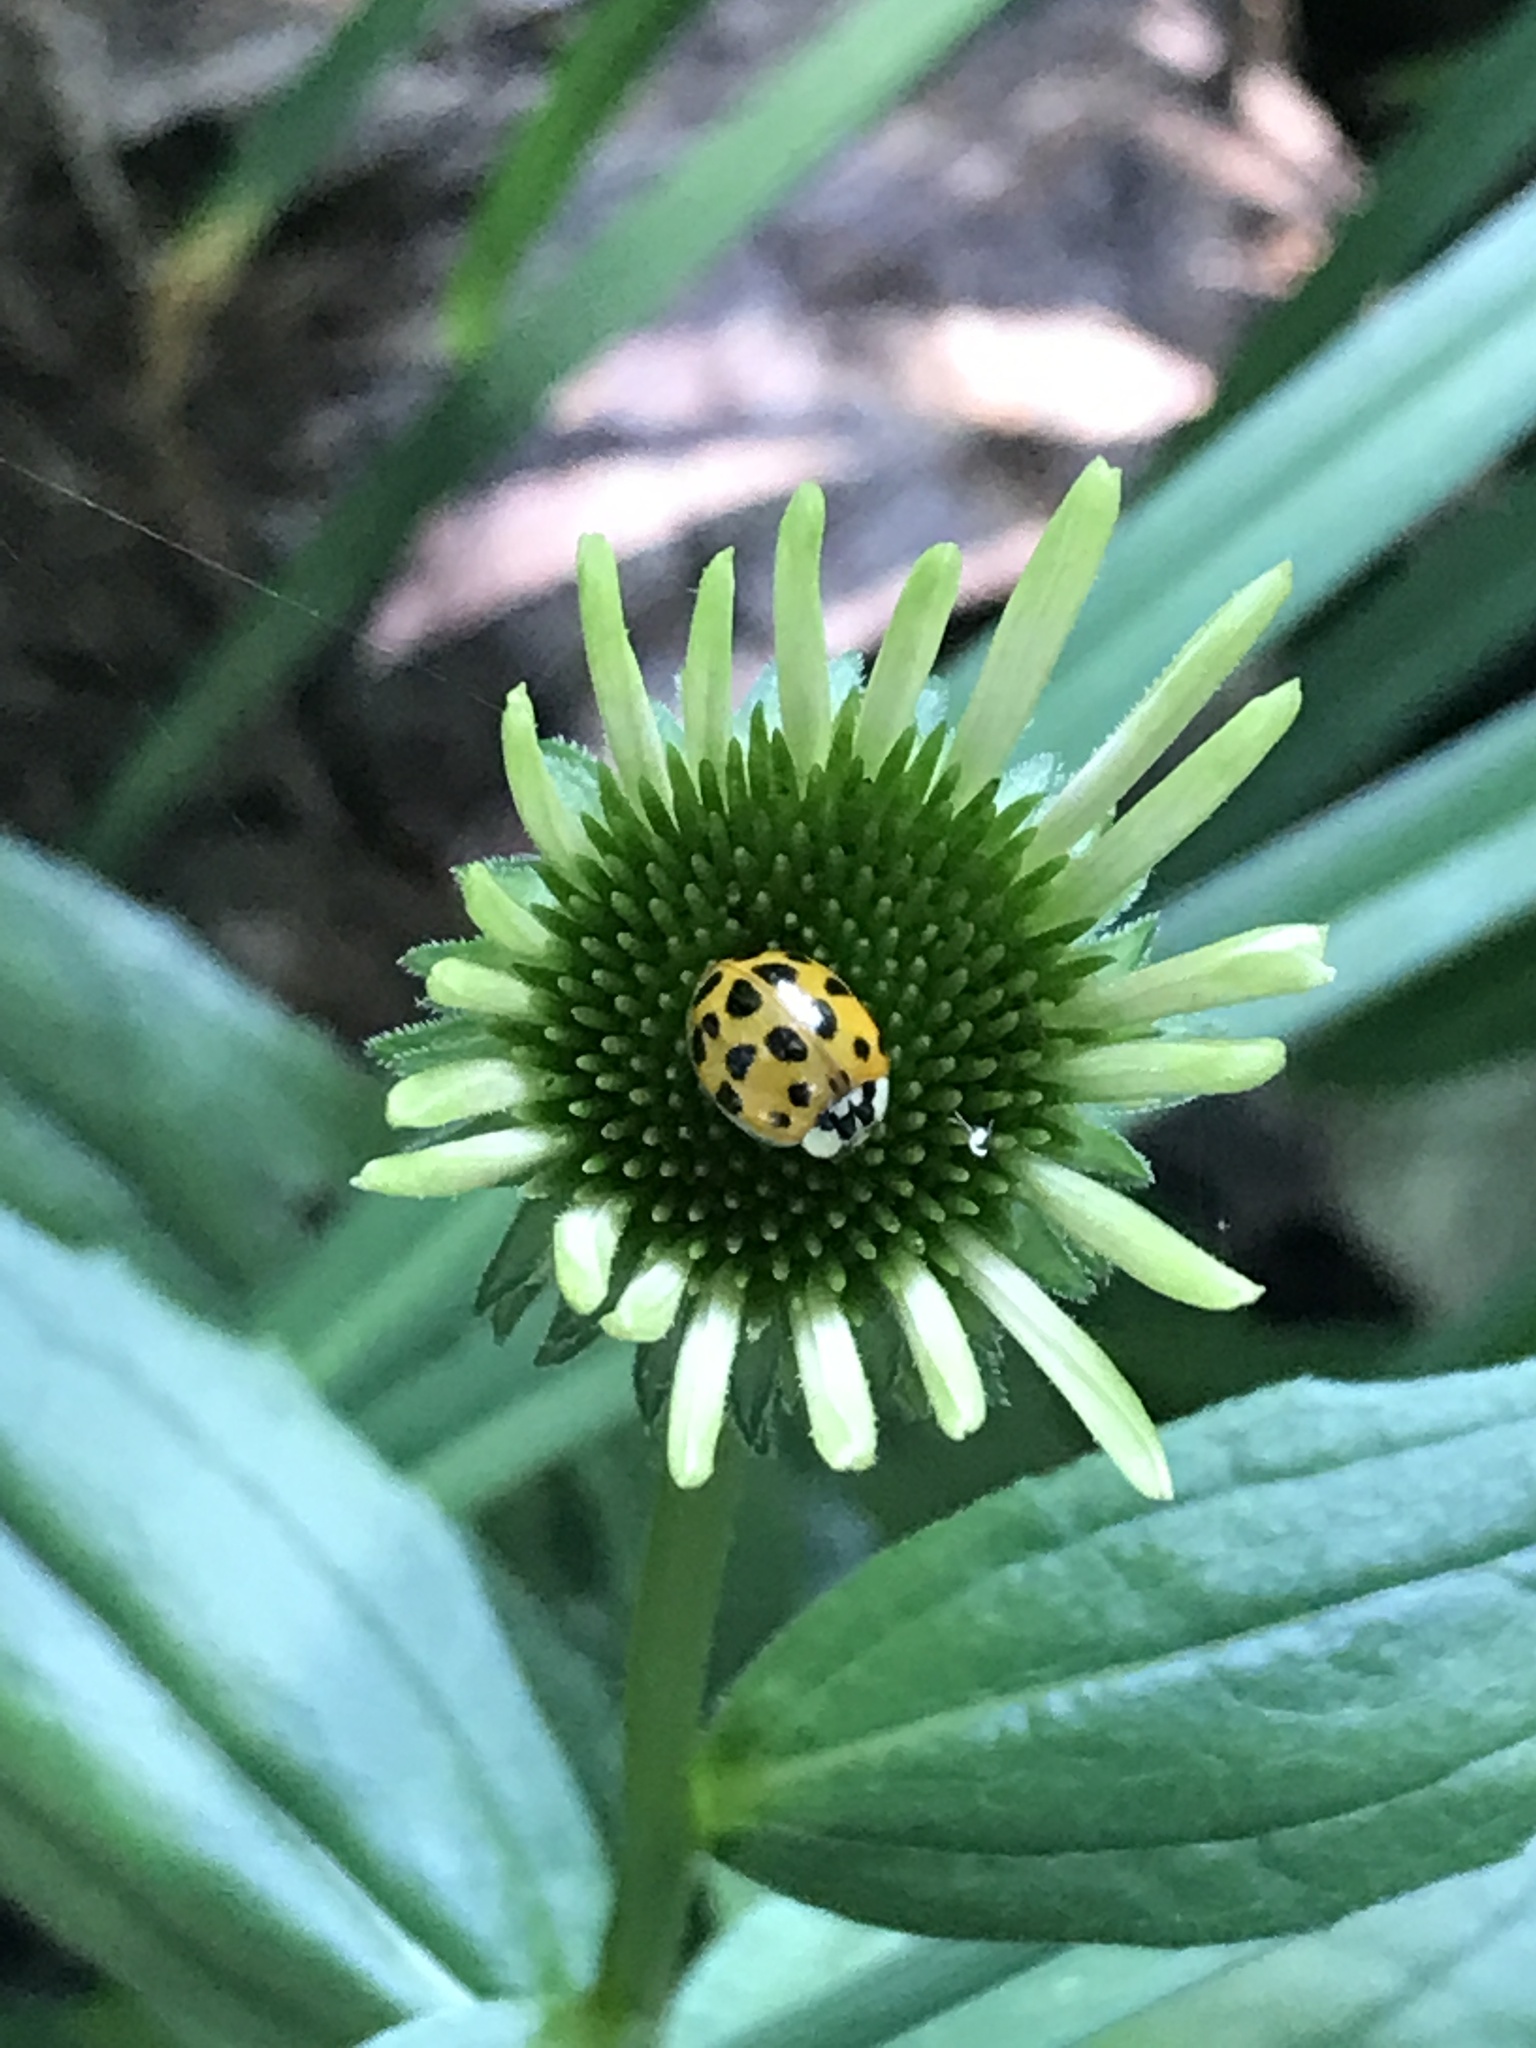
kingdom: Animalia
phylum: Arthropoda
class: Insecta
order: Coleoptera
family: Coccinellidae
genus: Harmonia
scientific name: Harmonia axyridis
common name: Harlequin ladybird
